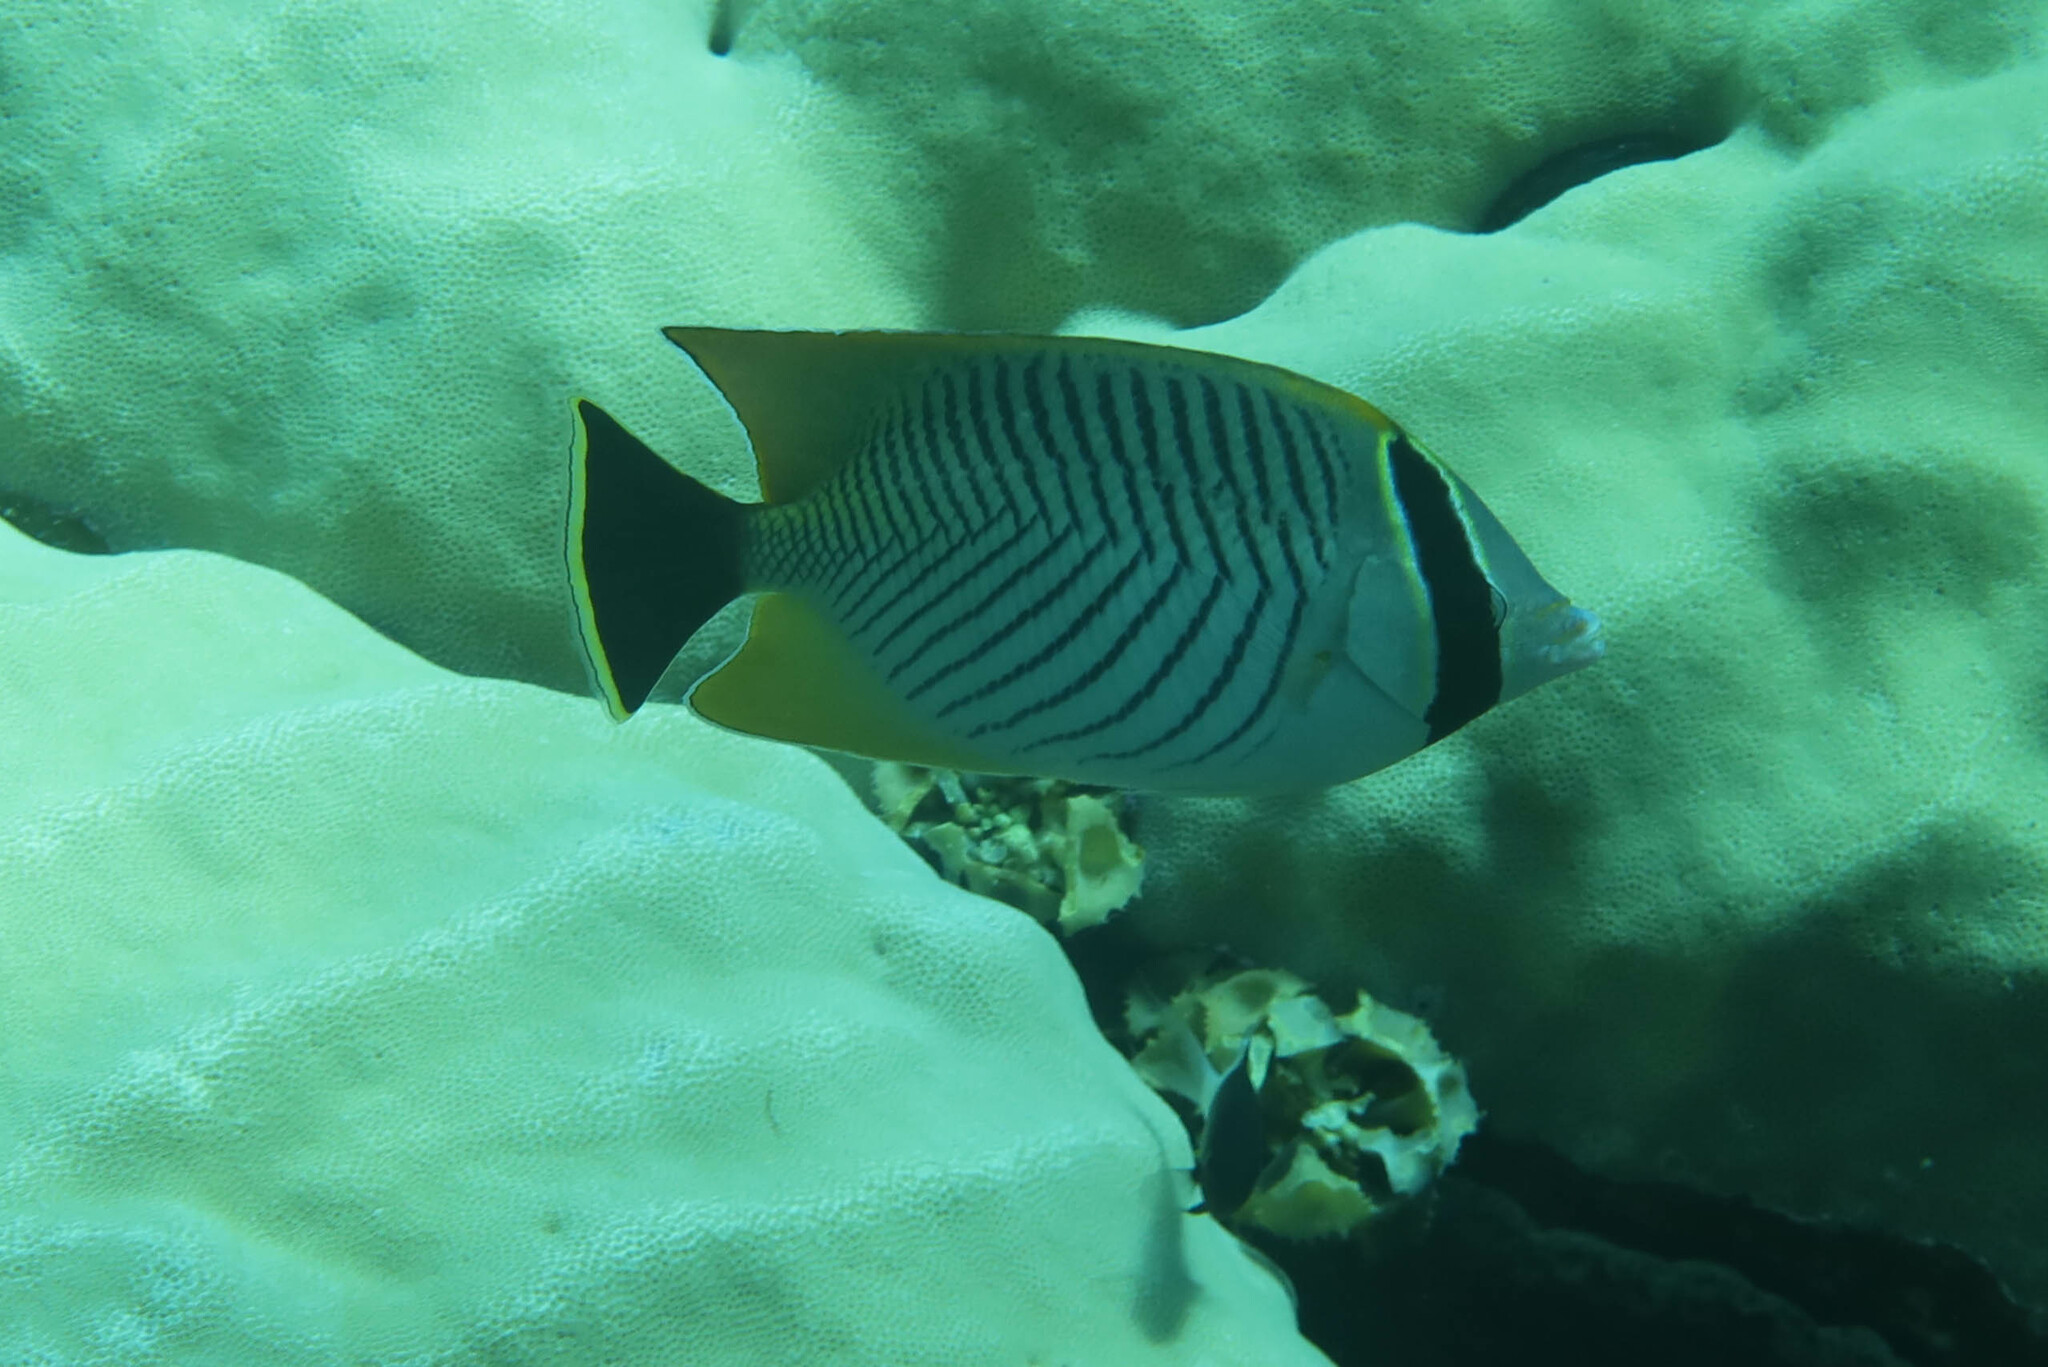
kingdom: Animalia
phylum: Chordata
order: Perciformes
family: Chaetodontidae
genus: Chaetodon
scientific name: Chaetodon trifascialis
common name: Chevroned butterflyfish
